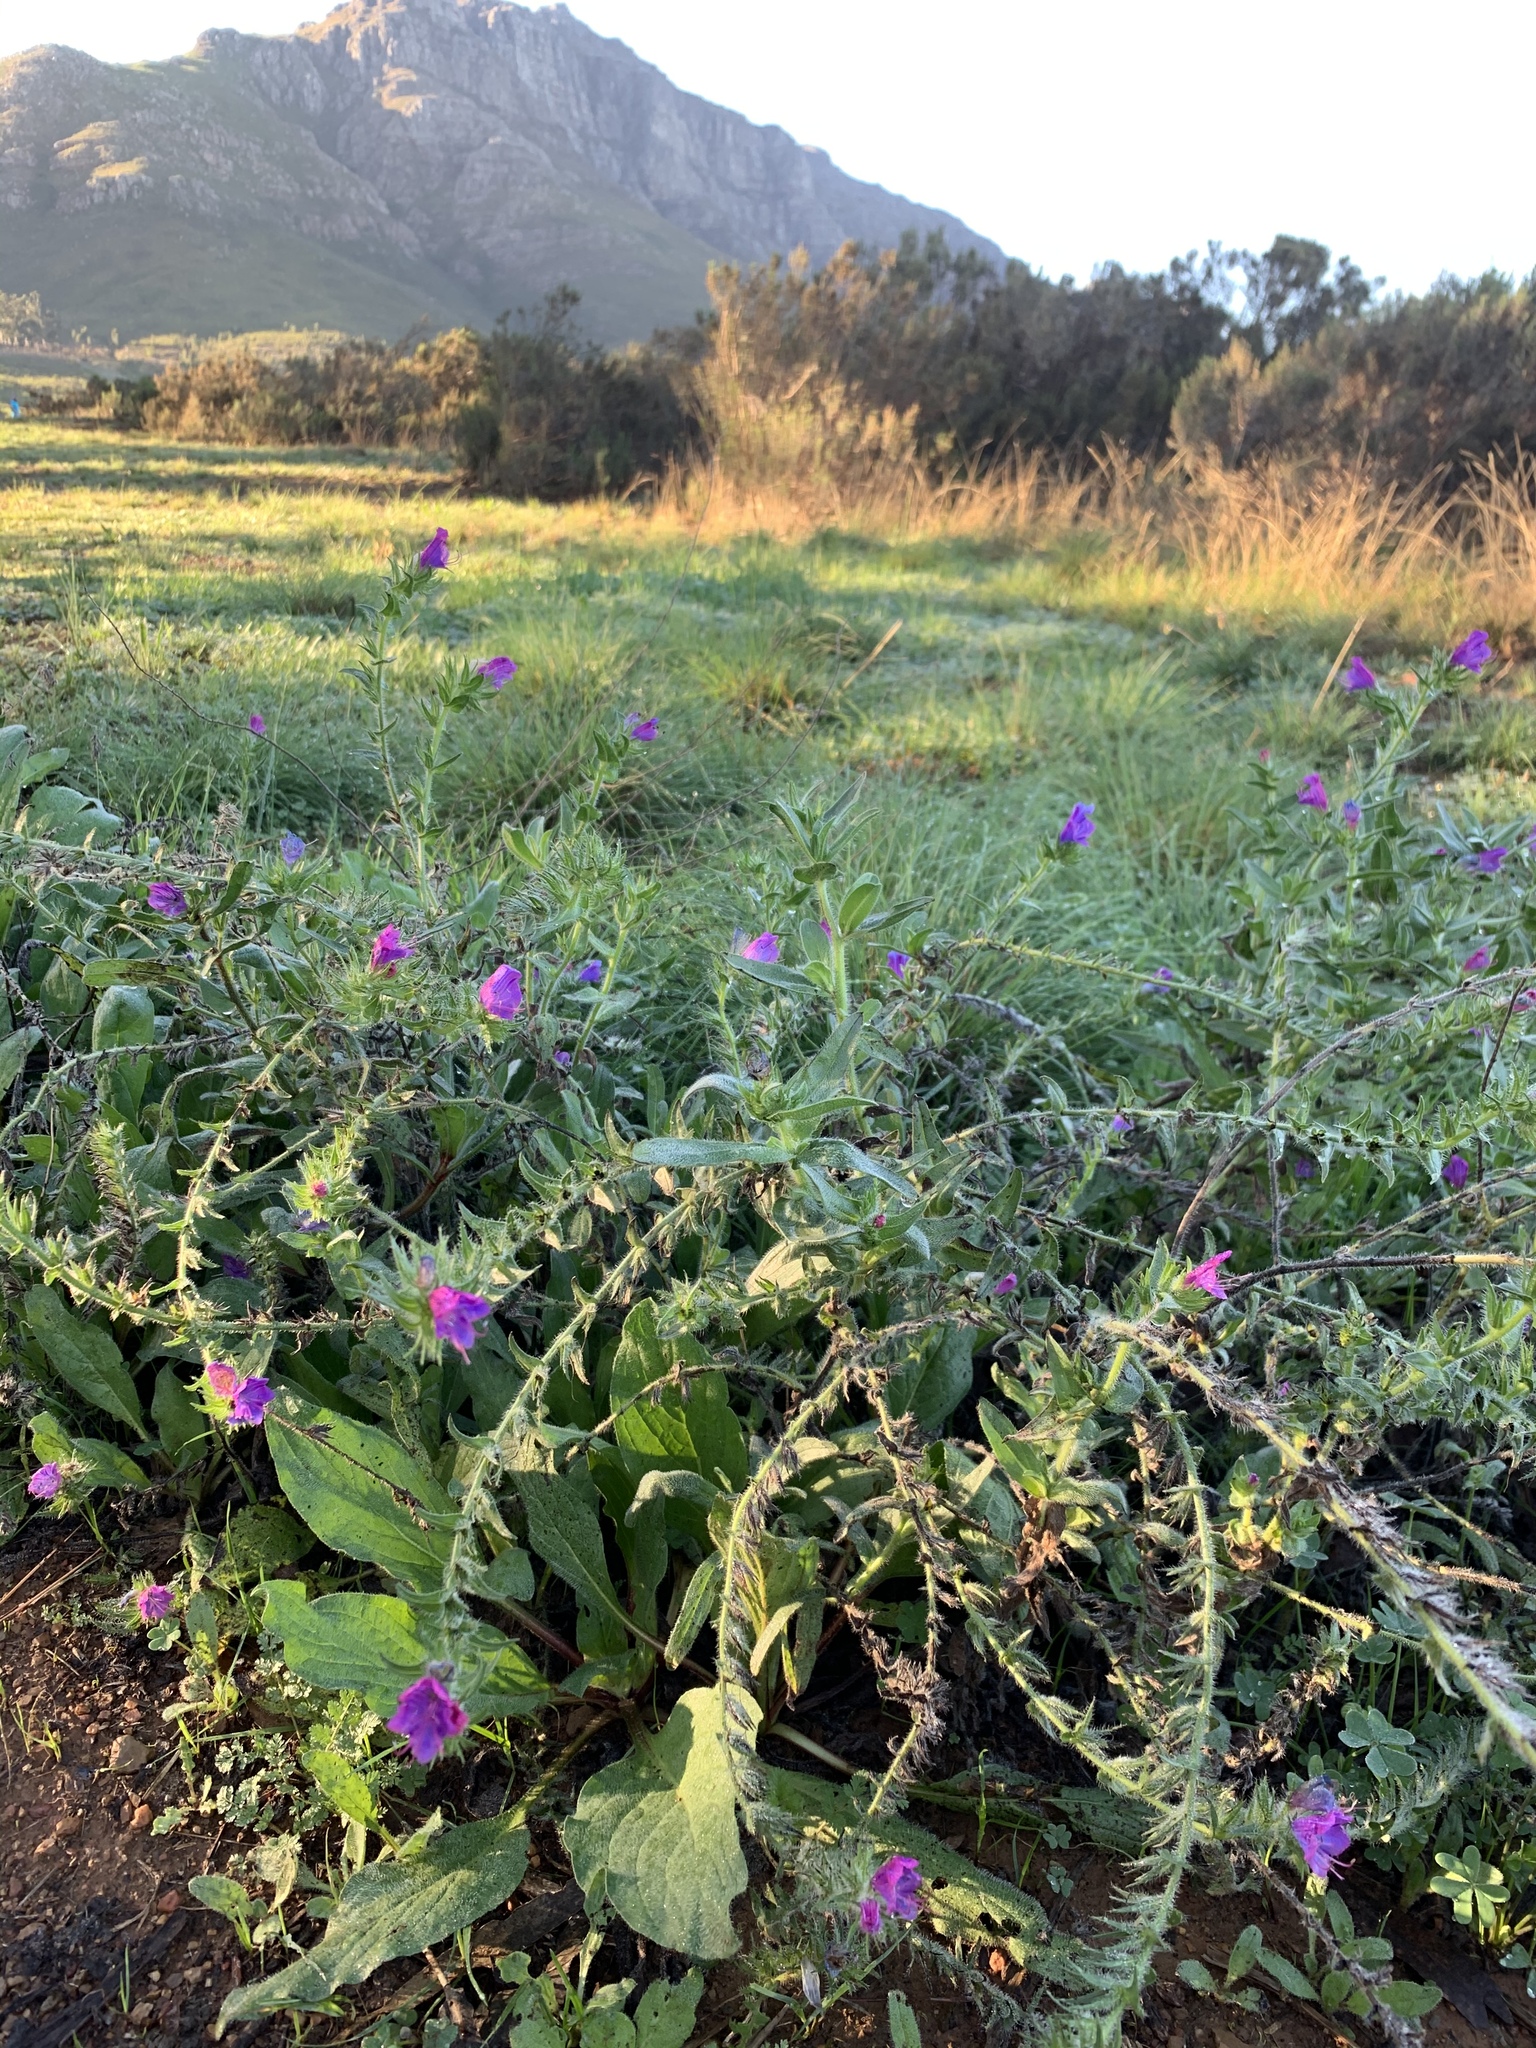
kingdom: Plantae
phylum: Tracheophyta
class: Magnoliopsida
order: Boraginales
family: Boraginaceae
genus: Echium
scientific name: Echium plantagineum
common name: Purple viper's-bugloss
